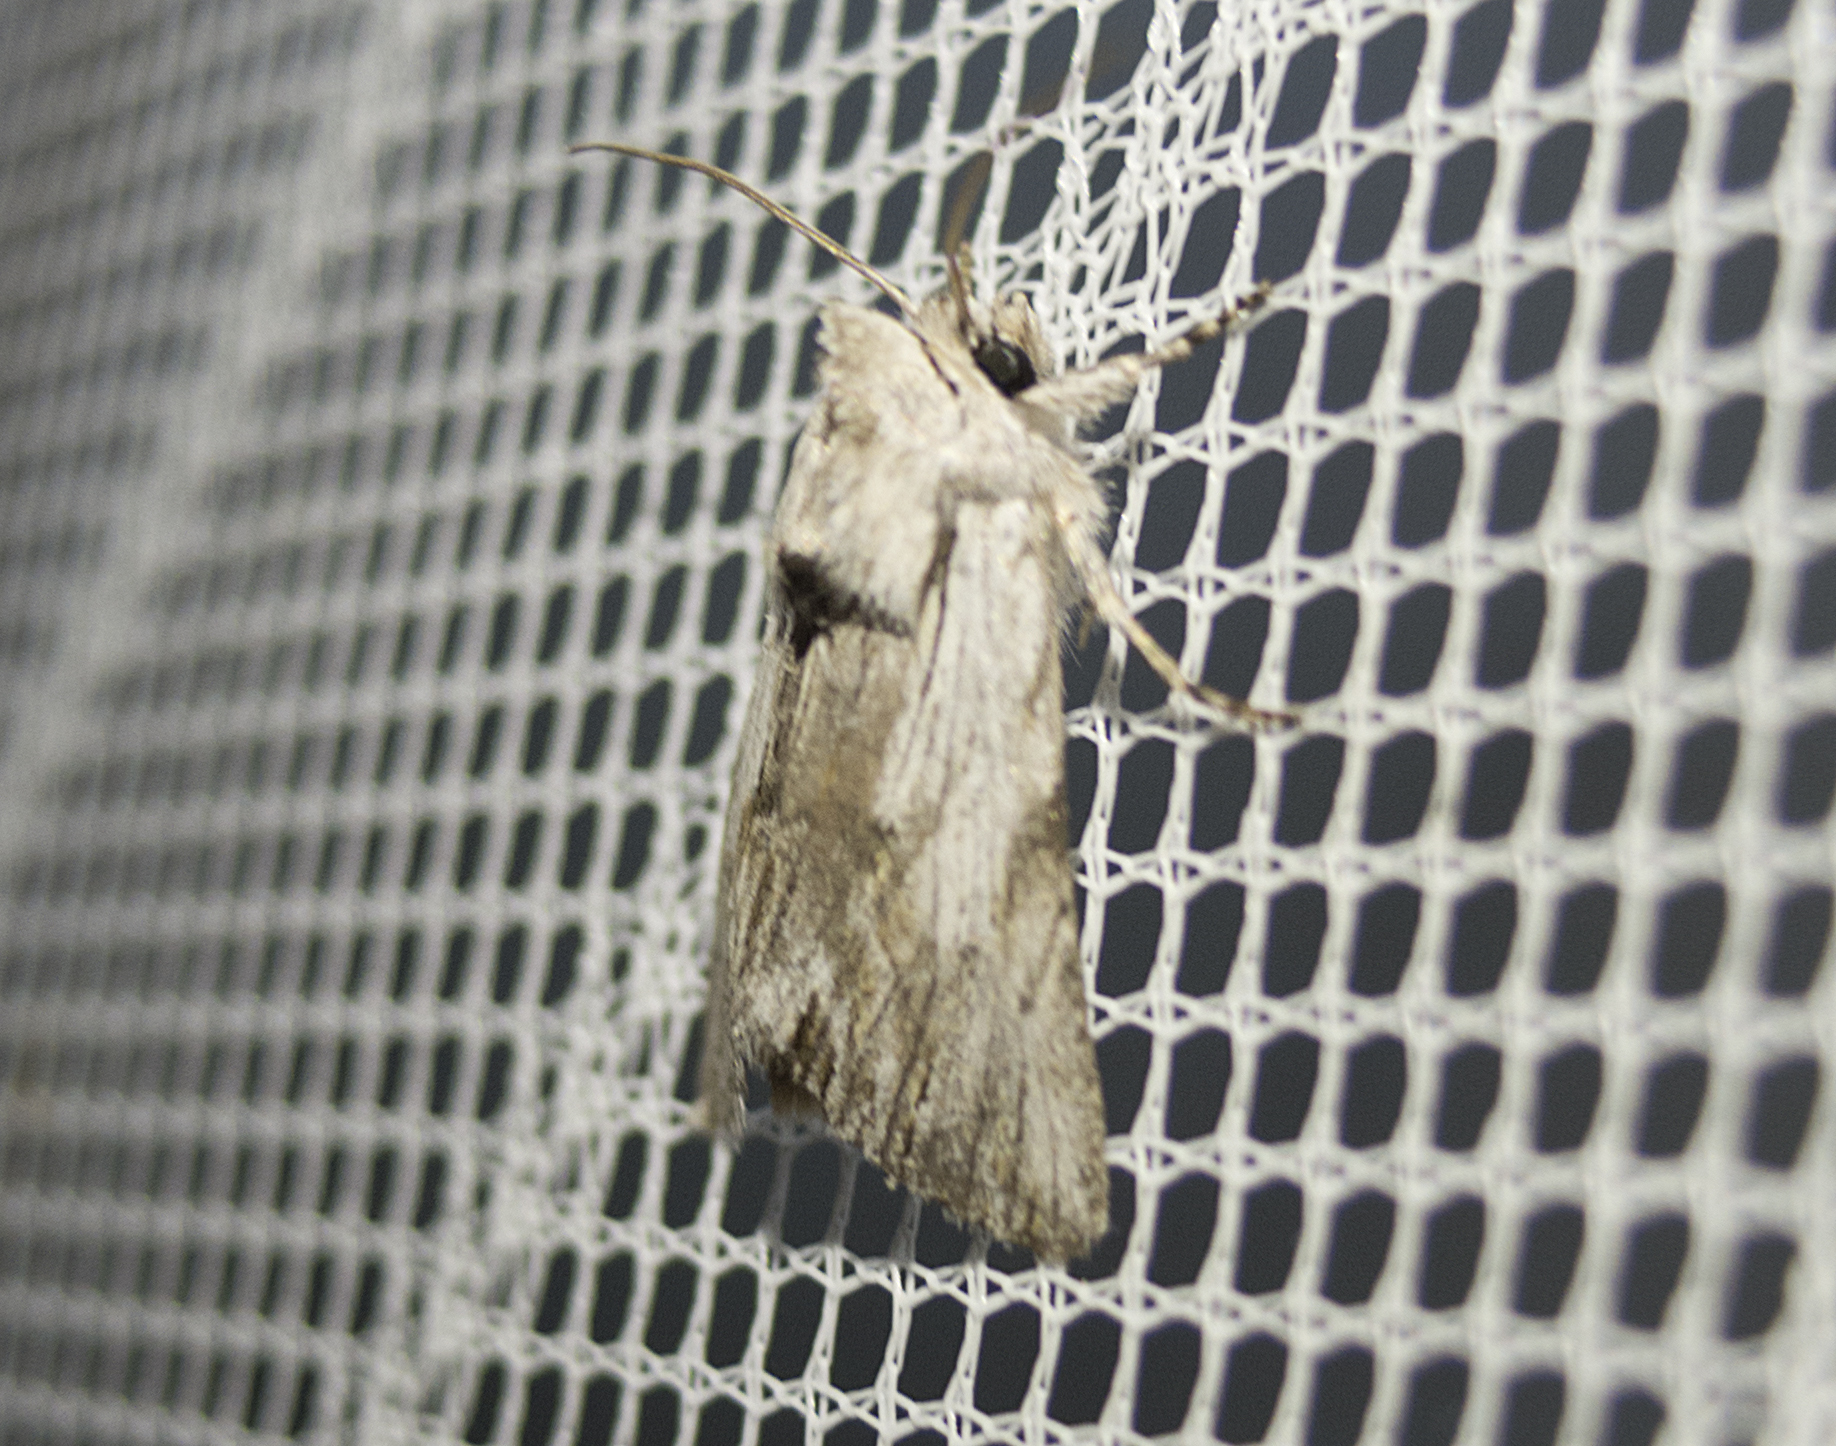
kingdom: Animalia
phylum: Arthropoda
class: Insecta
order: Lepidoptera
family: Noctuidae
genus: Calophasia
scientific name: Calophasia platyptera
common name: Antirrhinum brocade
